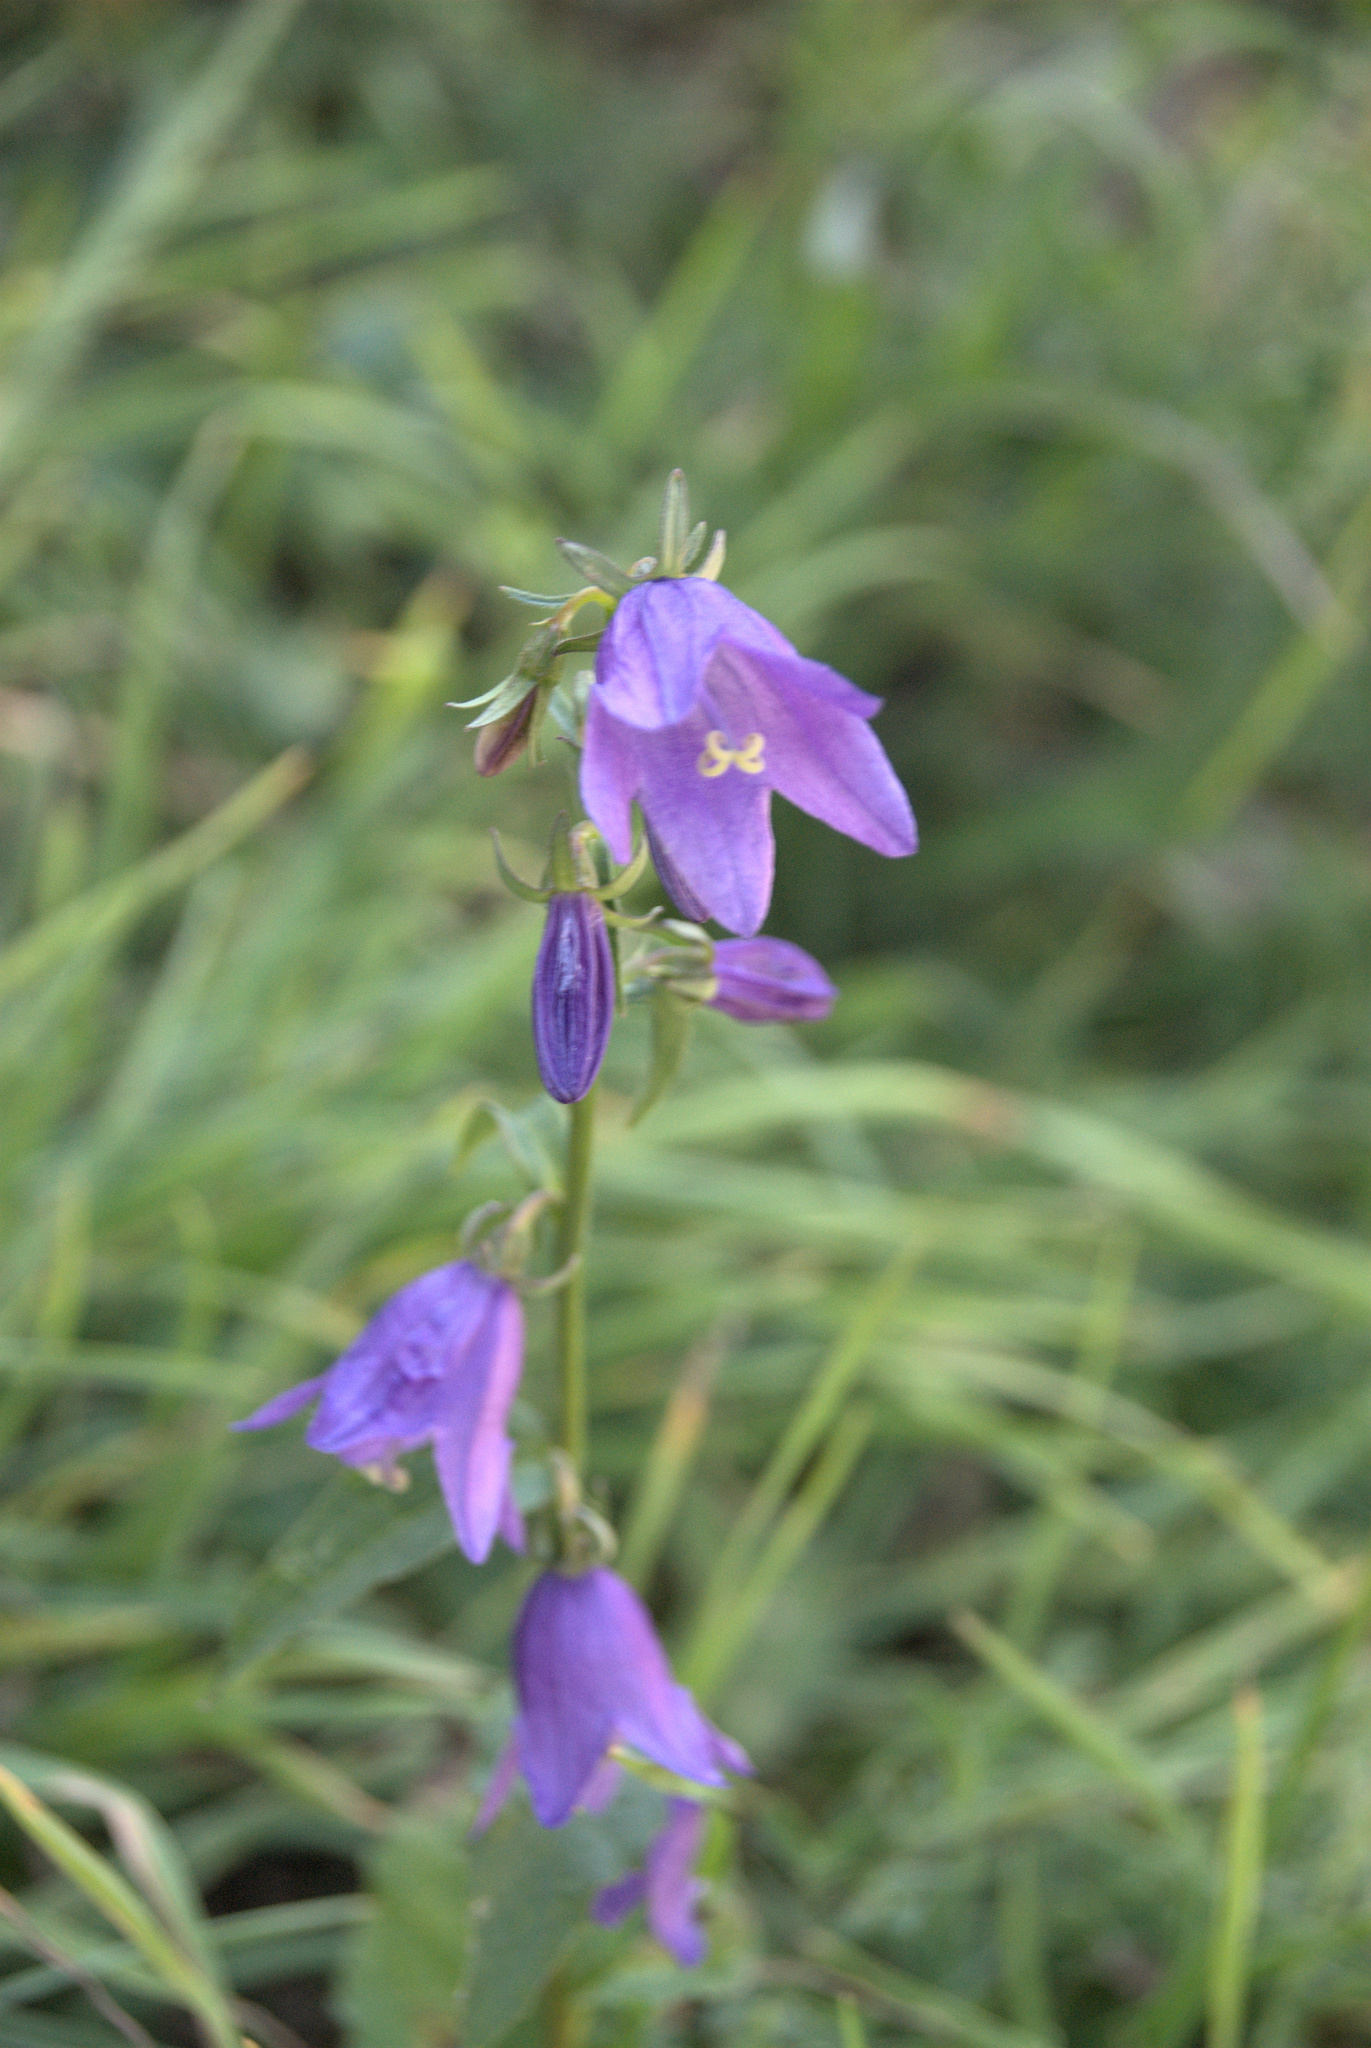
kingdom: Plantae
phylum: Tracheophyta
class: Magnoliopsida
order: Asterales
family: Campanulaceae
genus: Campanula
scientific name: Campanula rapunculoides
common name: Creeping bellflower
